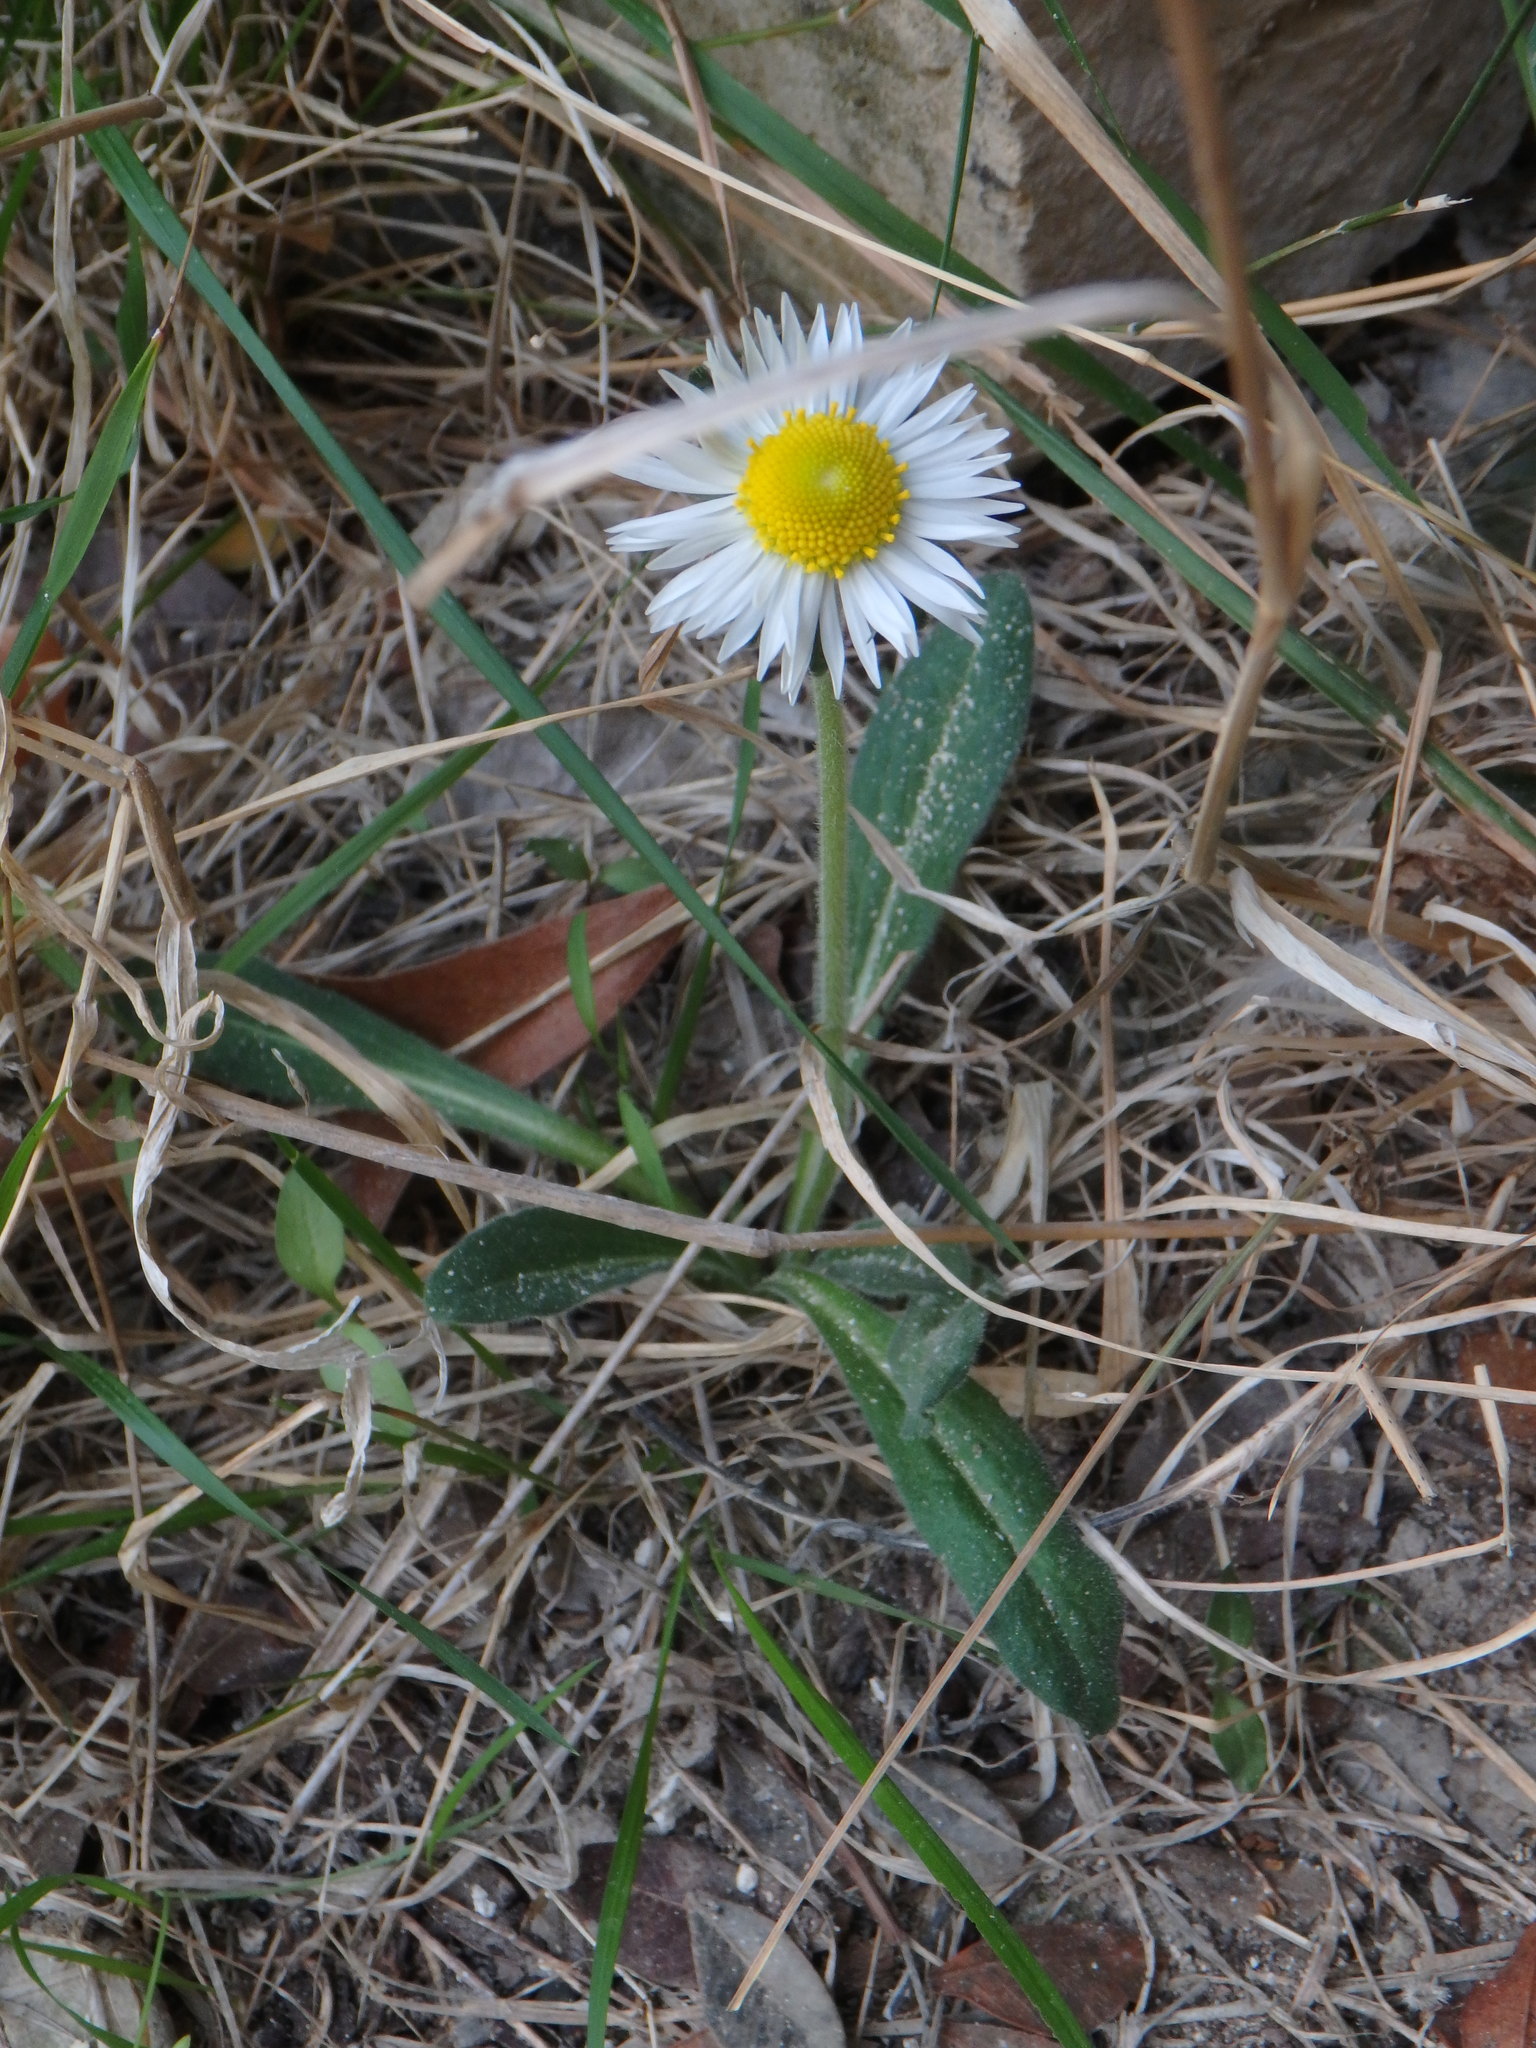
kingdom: Plantae
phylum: Tracheophyta
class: Magnoliopsida
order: Asterales
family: Asteraceae
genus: Bellis
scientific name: Bellis sylvestris
